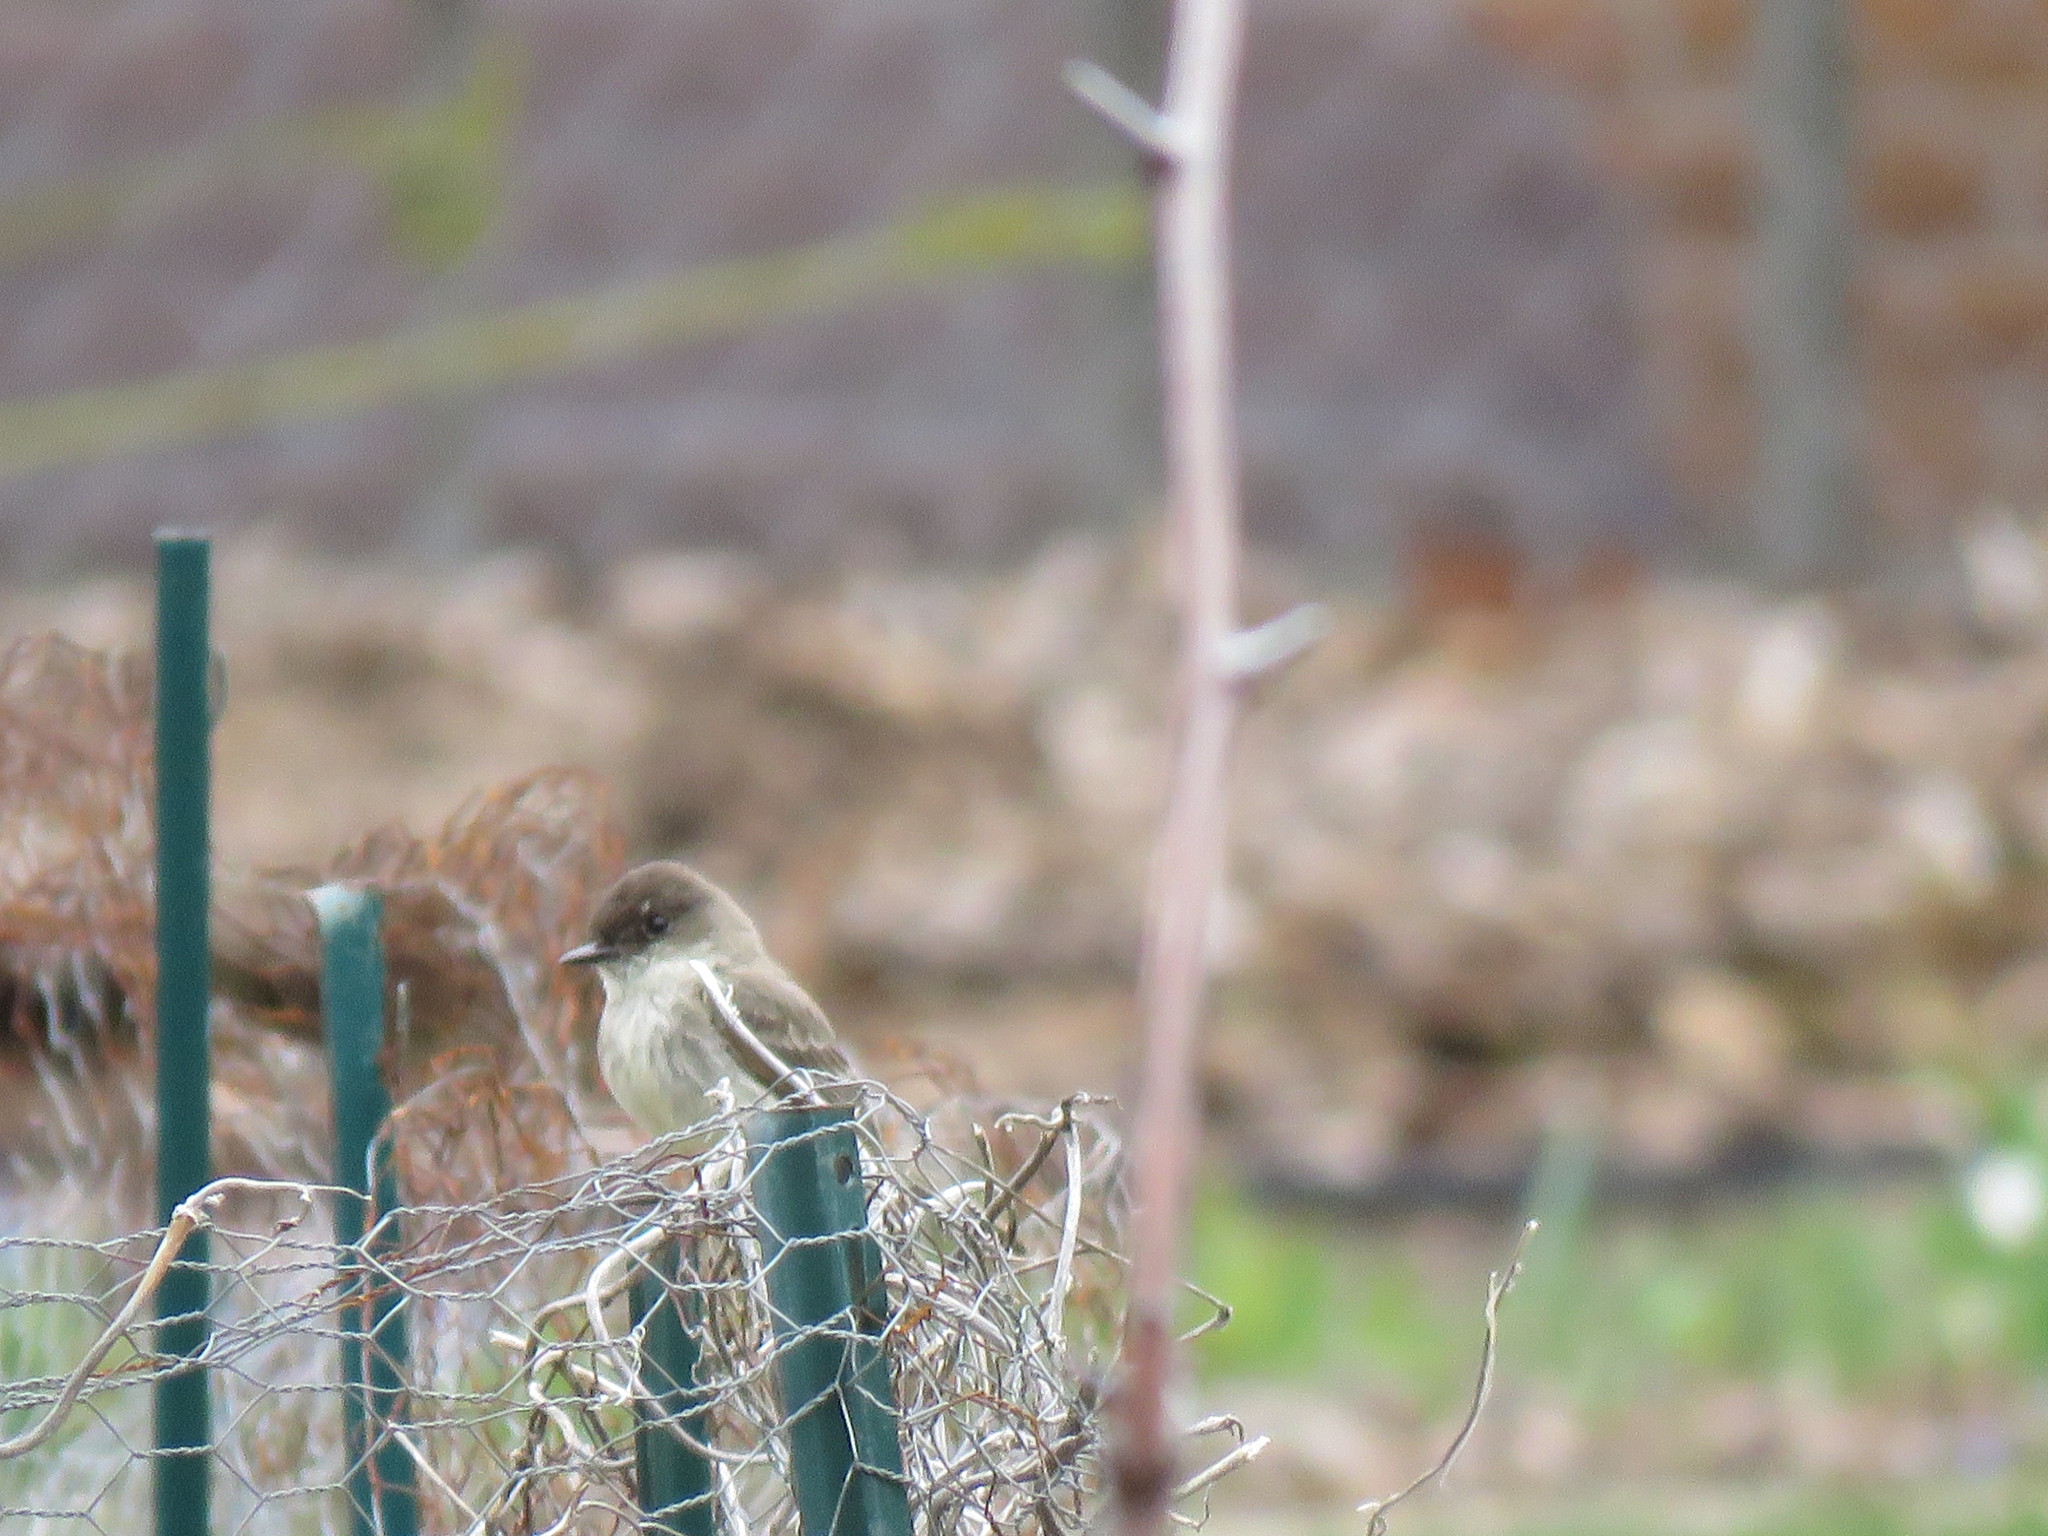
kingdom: Animalia
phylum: Chordata
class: Aves
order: Passeriformes
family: Tyrannidae
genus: Sayornis
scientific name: Sayornis phoebe
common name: Eastern phoebe
